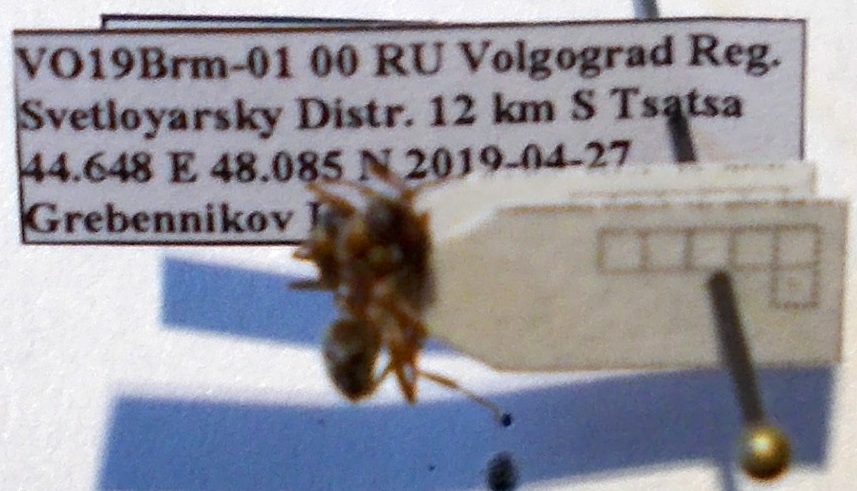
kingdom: Animalia
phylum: Arthropoda
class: Insecta
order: Hymenoptera
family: Formicidae
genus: Formica
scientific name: Formica cinerea
